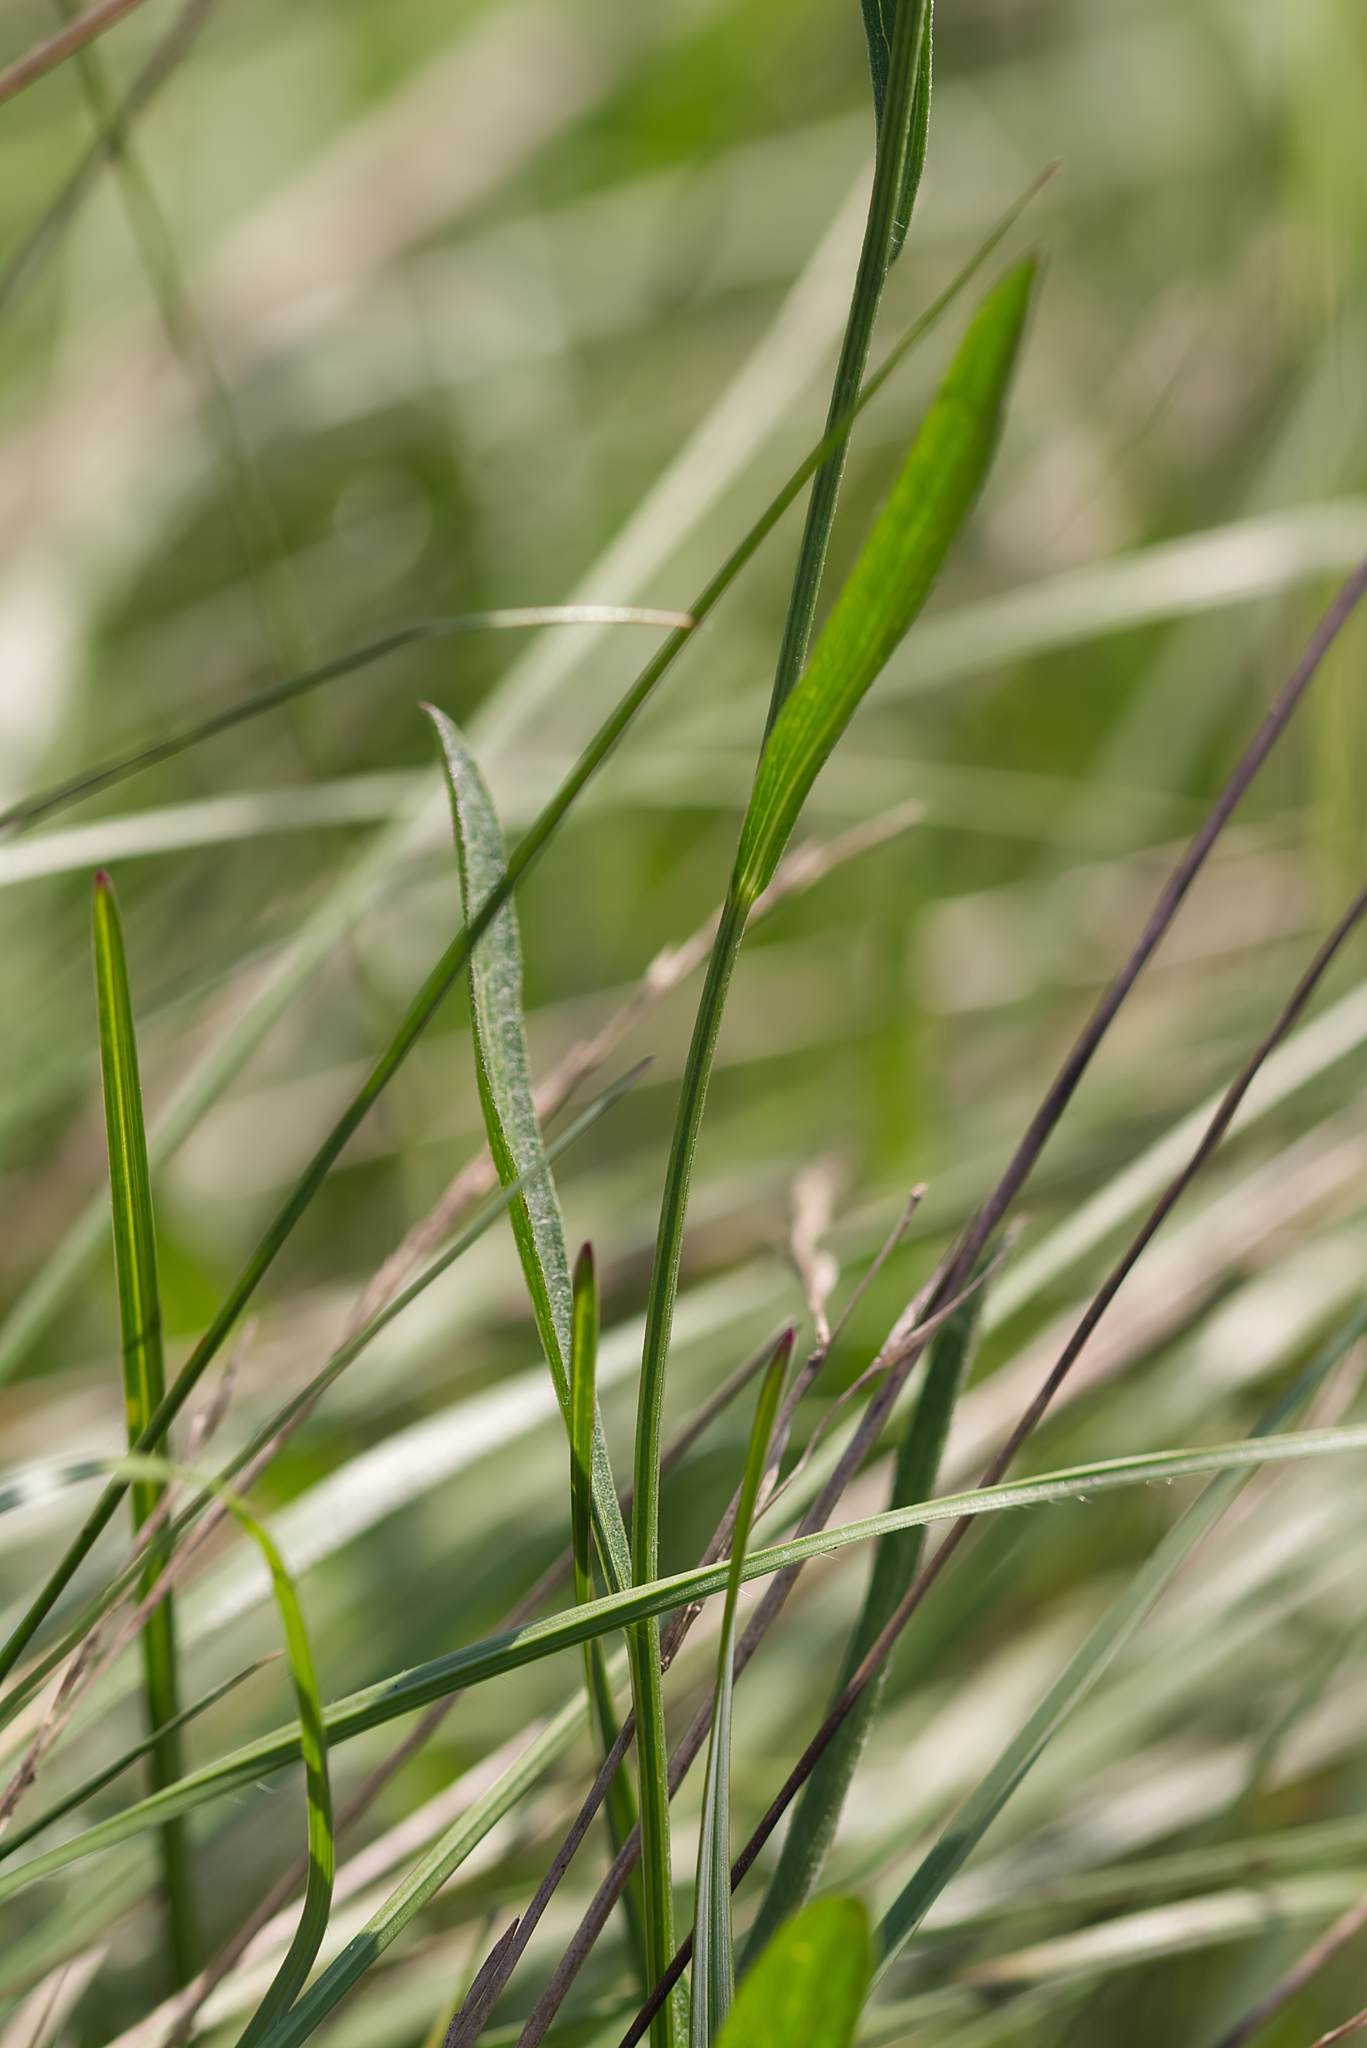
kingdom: Plantae
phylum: Tracheophyta
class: Magnoliopsida
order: Asterales
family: Asteraceae
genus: Centaurea
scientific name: Centaurea jacea
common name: Brown knapweed
